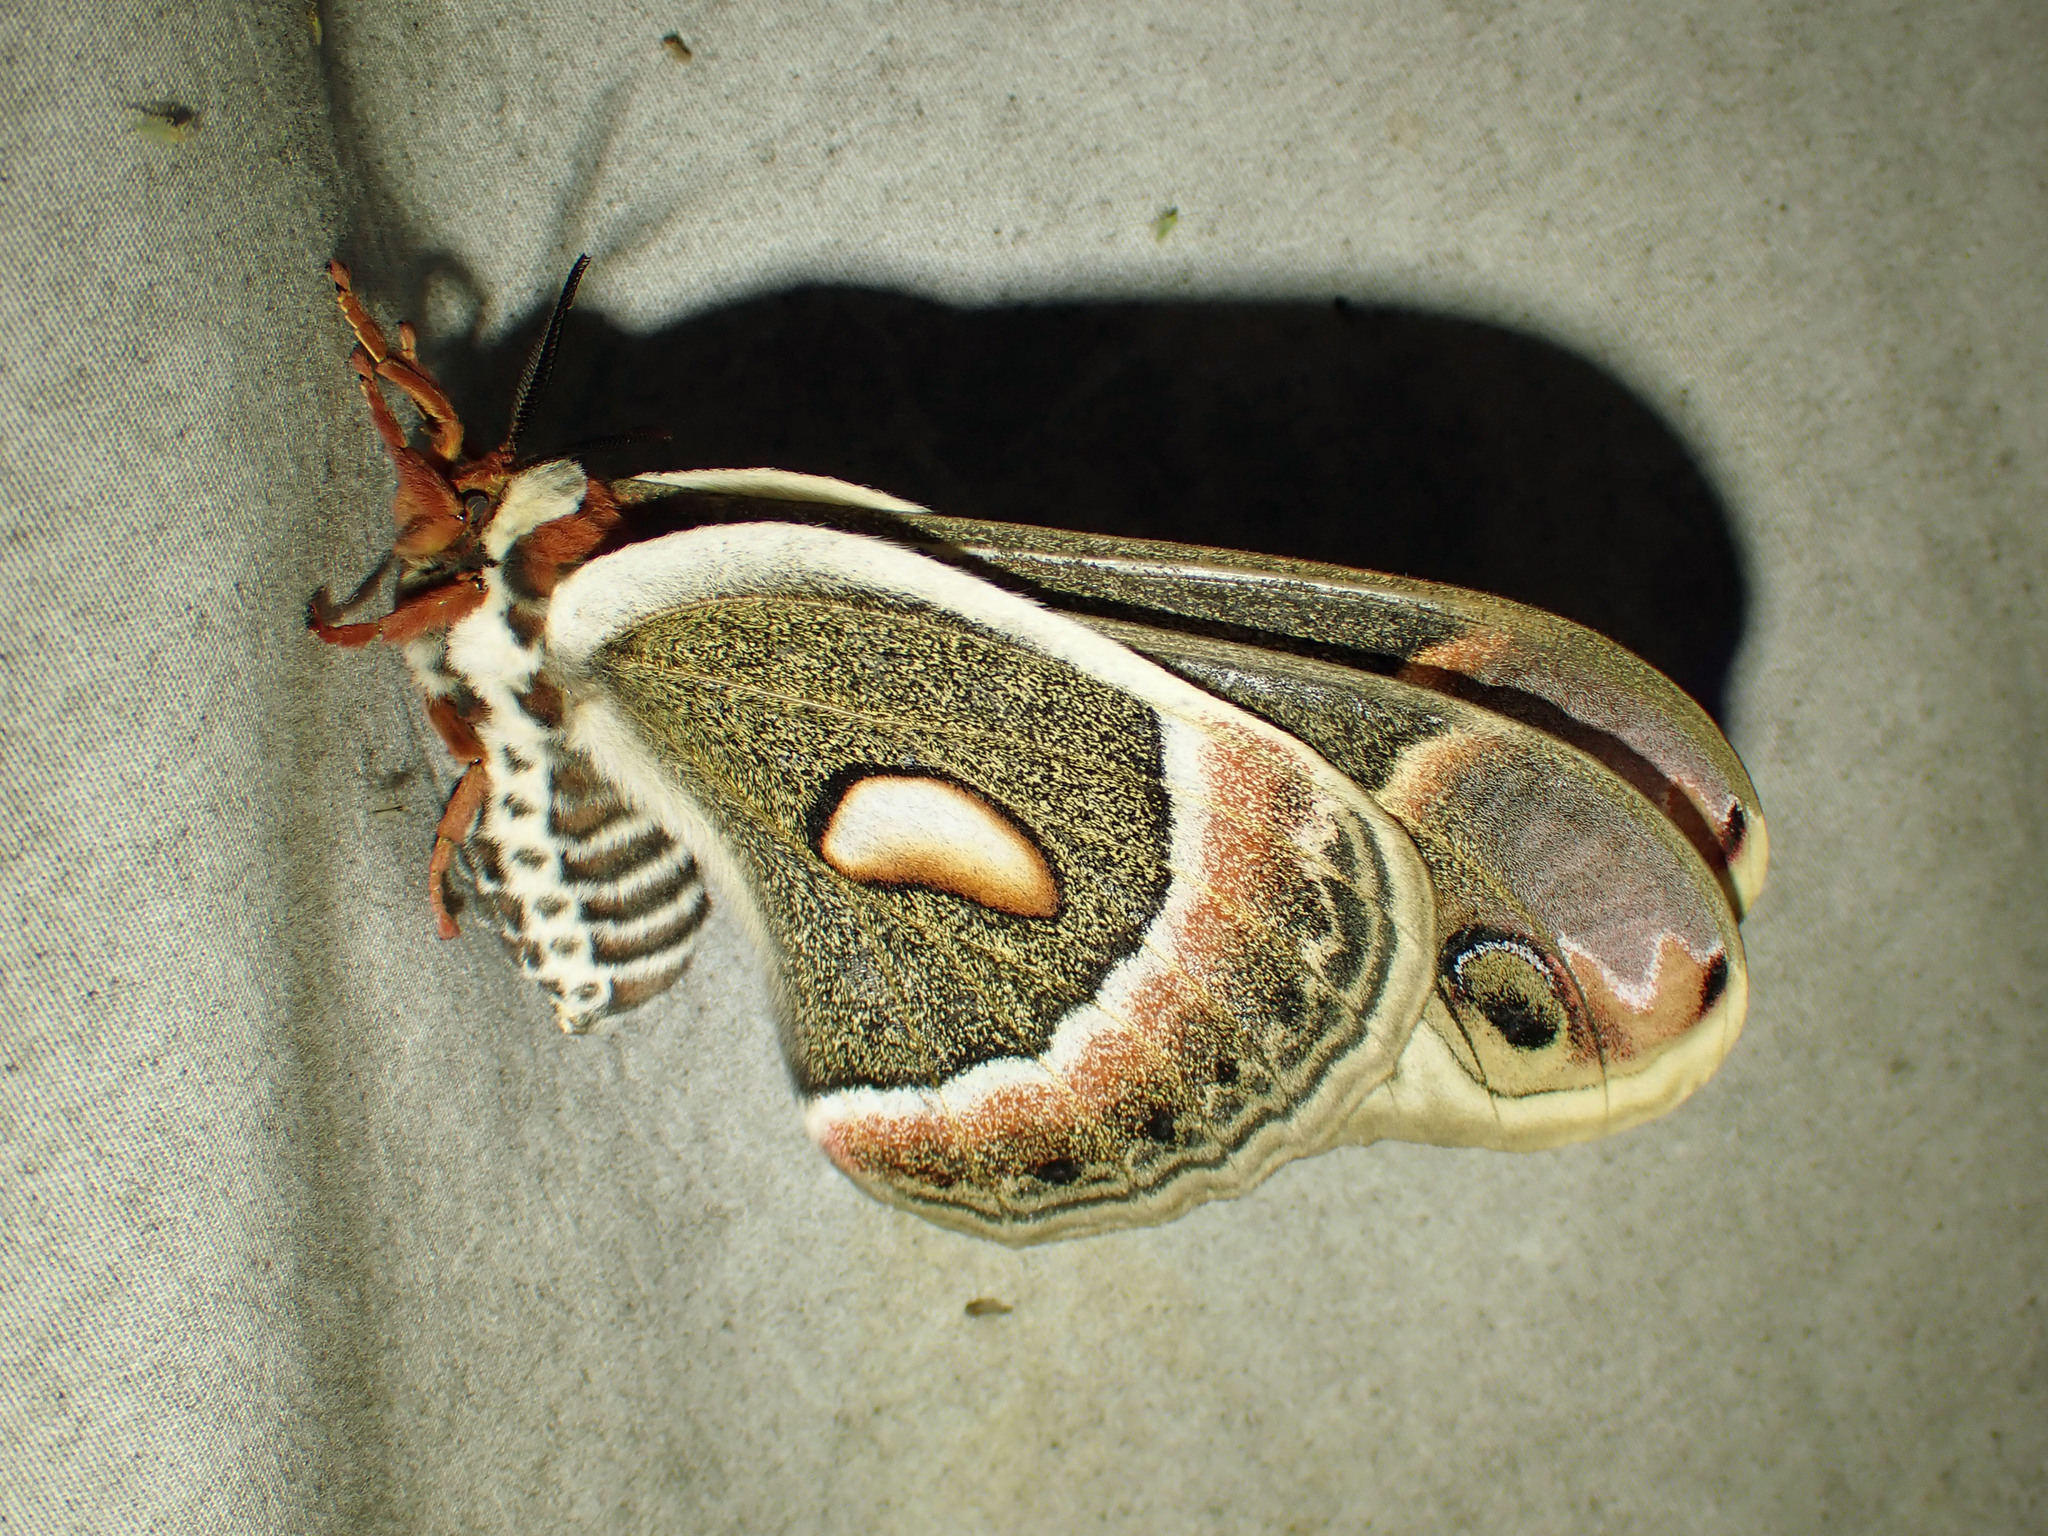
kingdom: Animalia
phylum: Arthropoda
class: Insecta
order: Lepidoptera
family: Saturniidae
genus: Hyalophora
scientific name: Hyalophora cecropia
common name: Cecropia silkmoth
